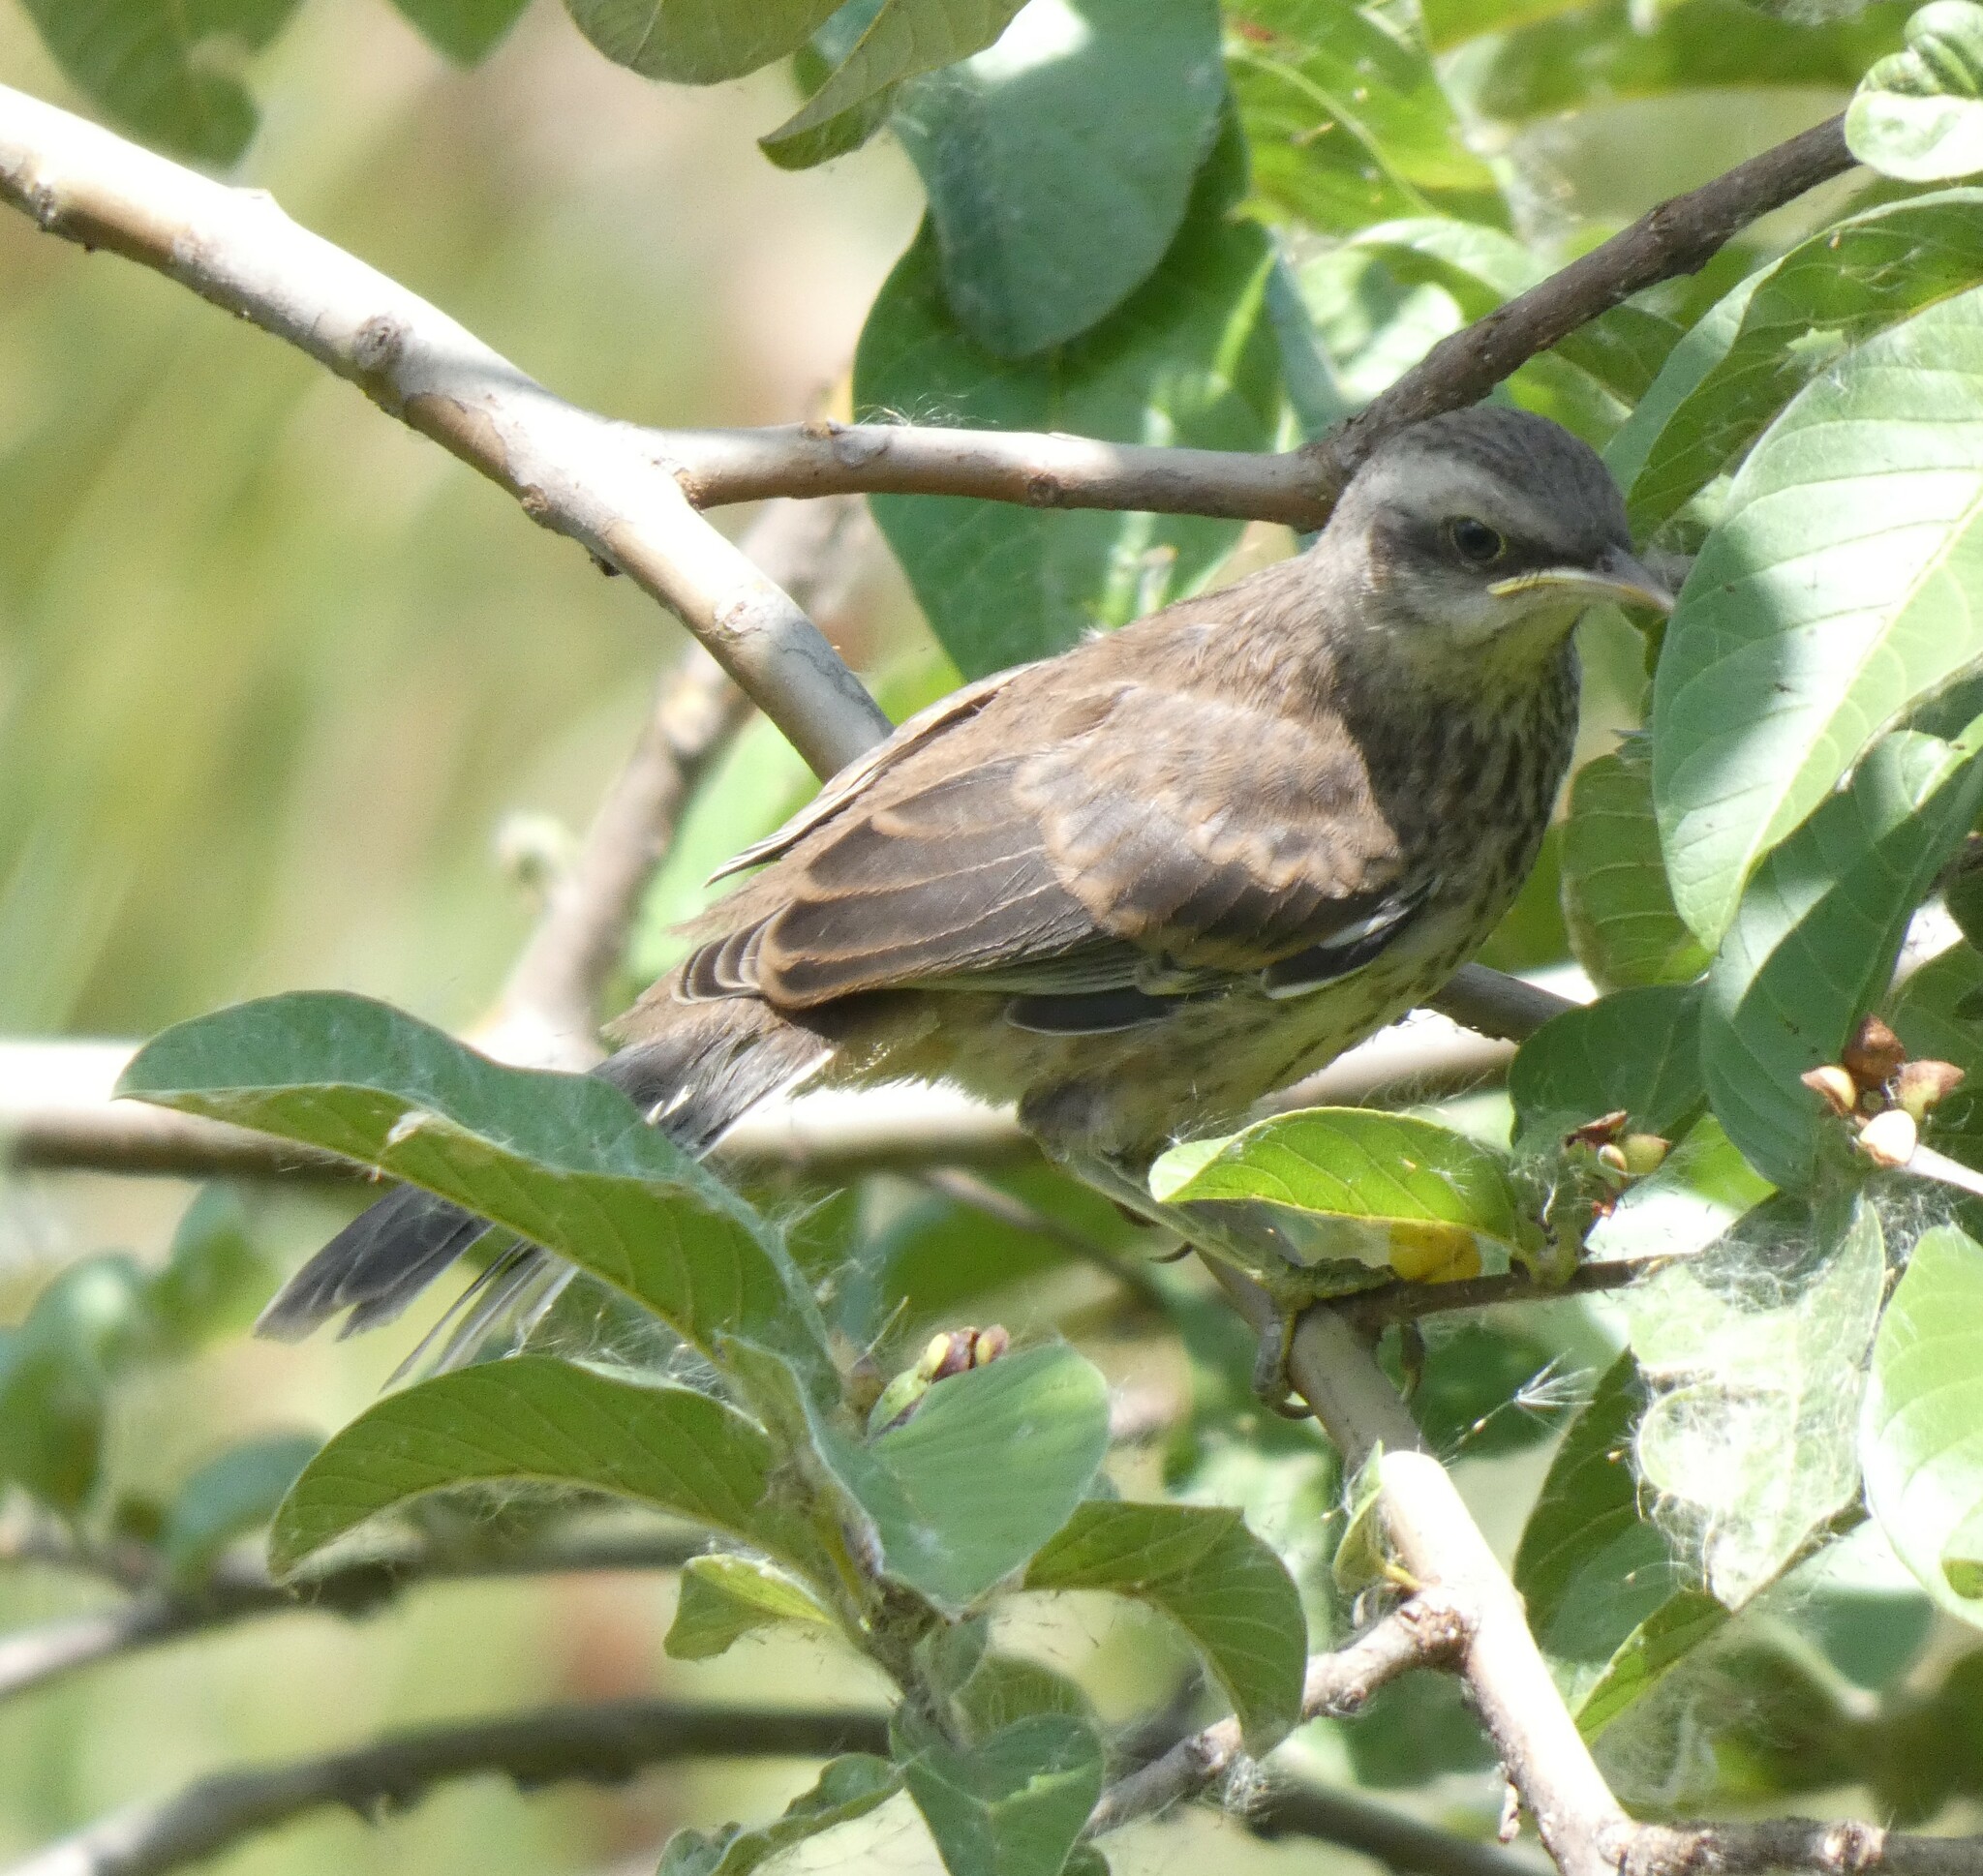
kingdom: Animalia
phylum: Chordata
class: Aves
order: Passeriformes
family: Mimidae
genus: Mimus
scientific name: Mimus saturninus
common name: Chalk-browed mockingbird
